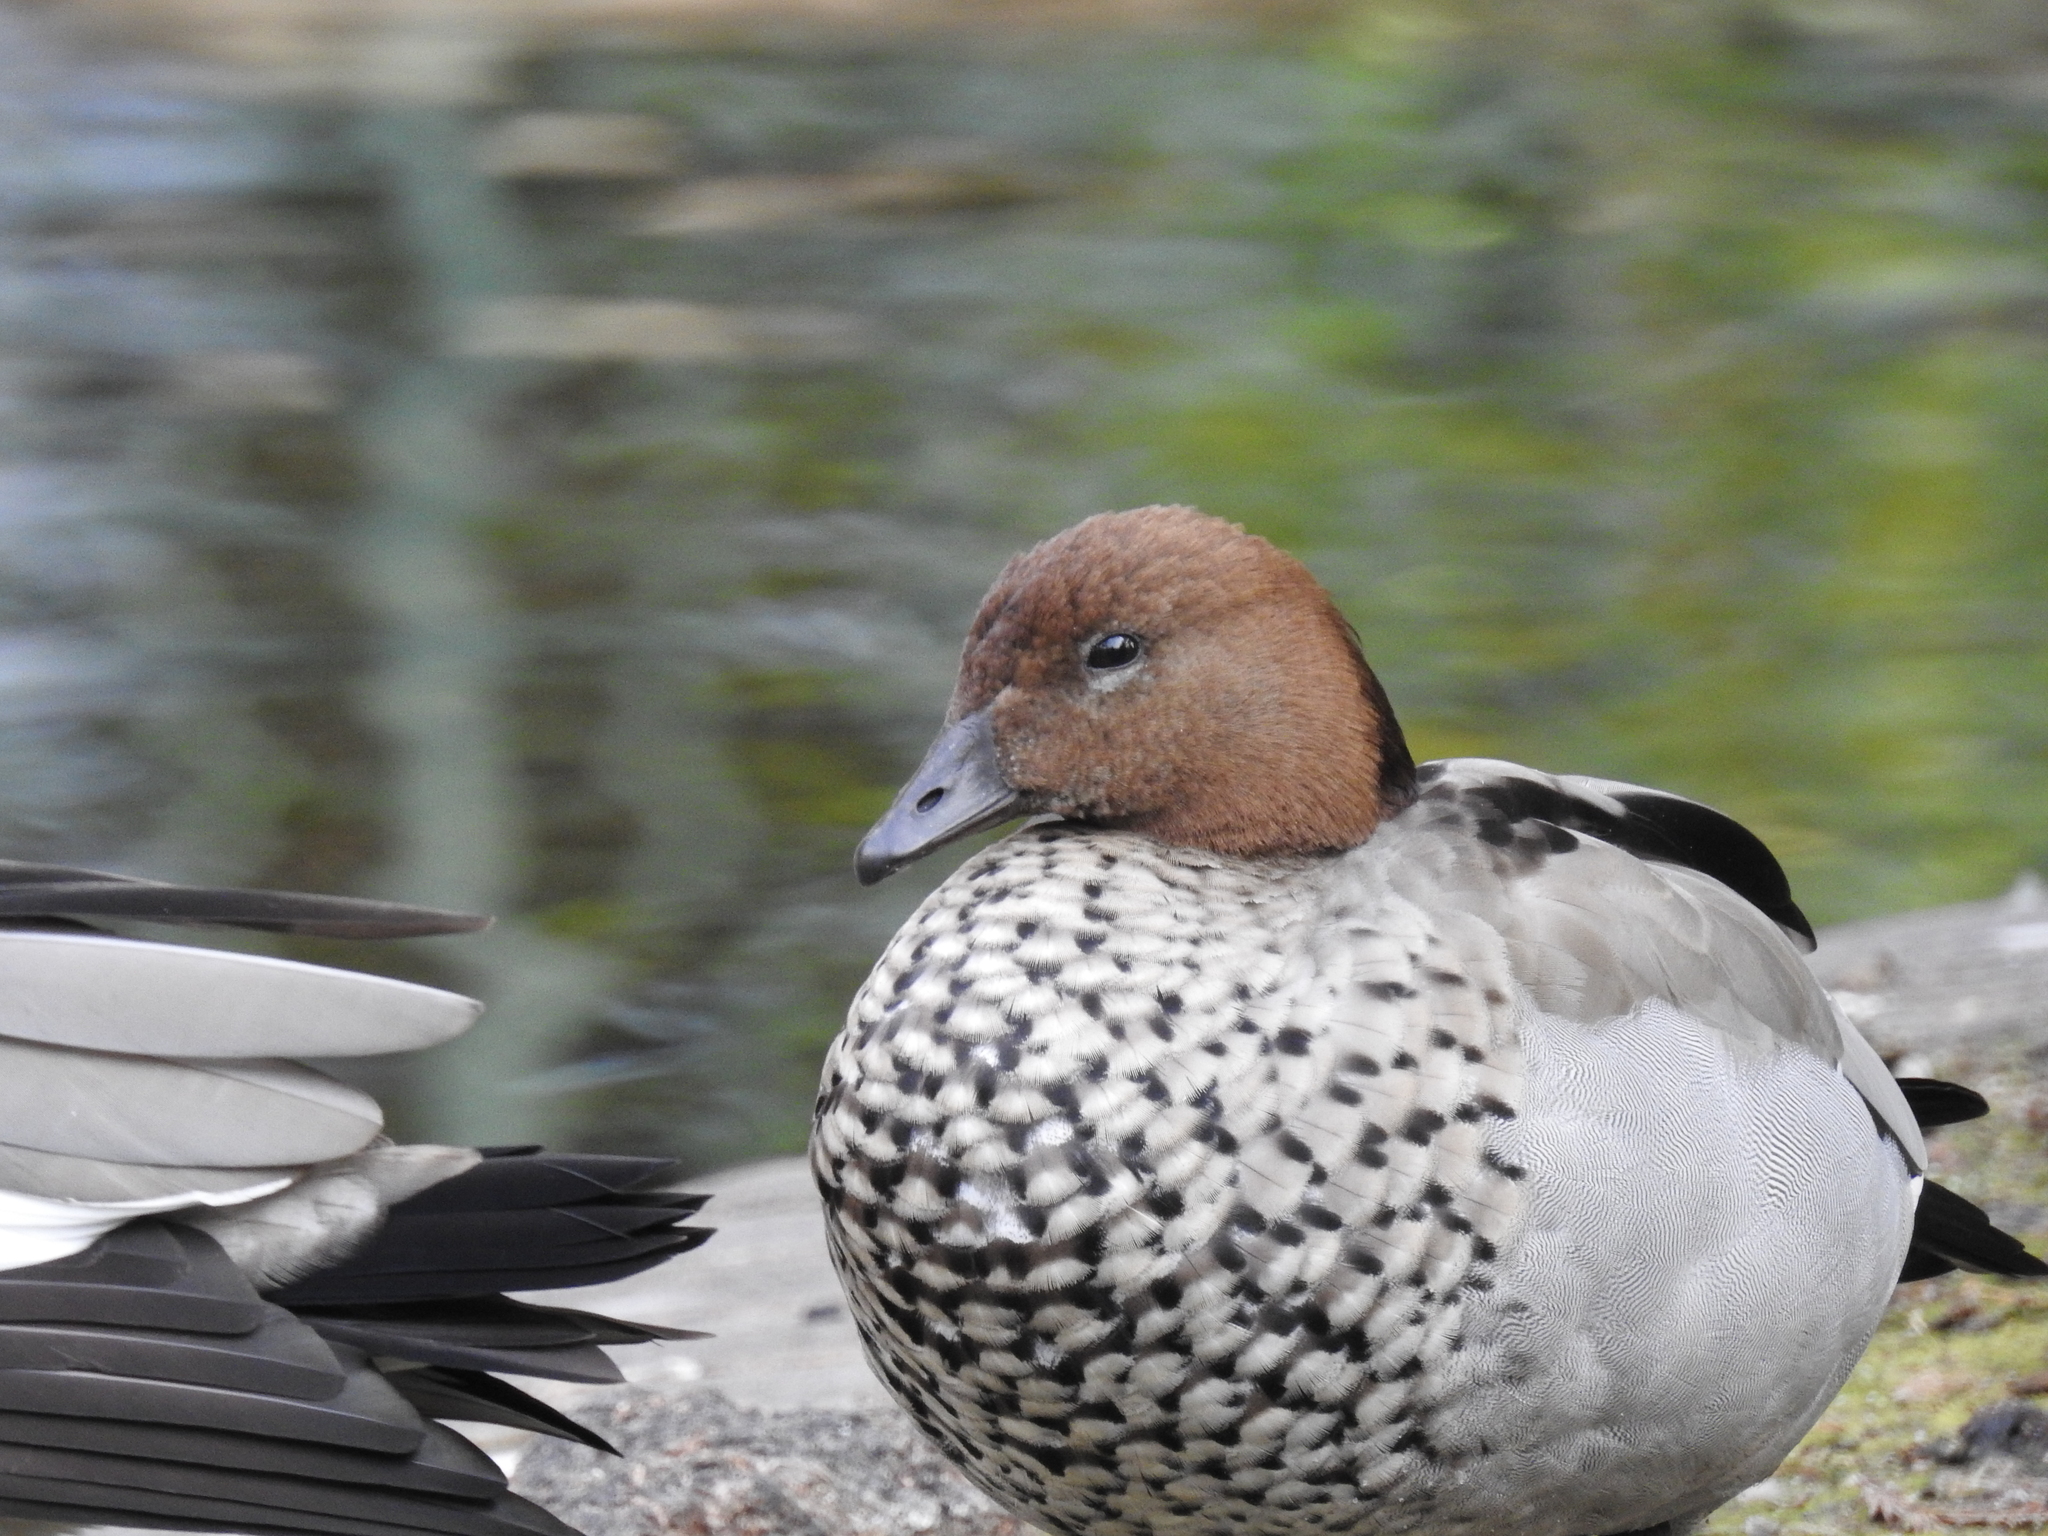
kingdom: Animalia
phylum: Chordata
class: Aves
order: Anseriformes
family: Anatidae
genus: Chenonetta
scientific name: Chenonetta jubata
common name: Maned duck
